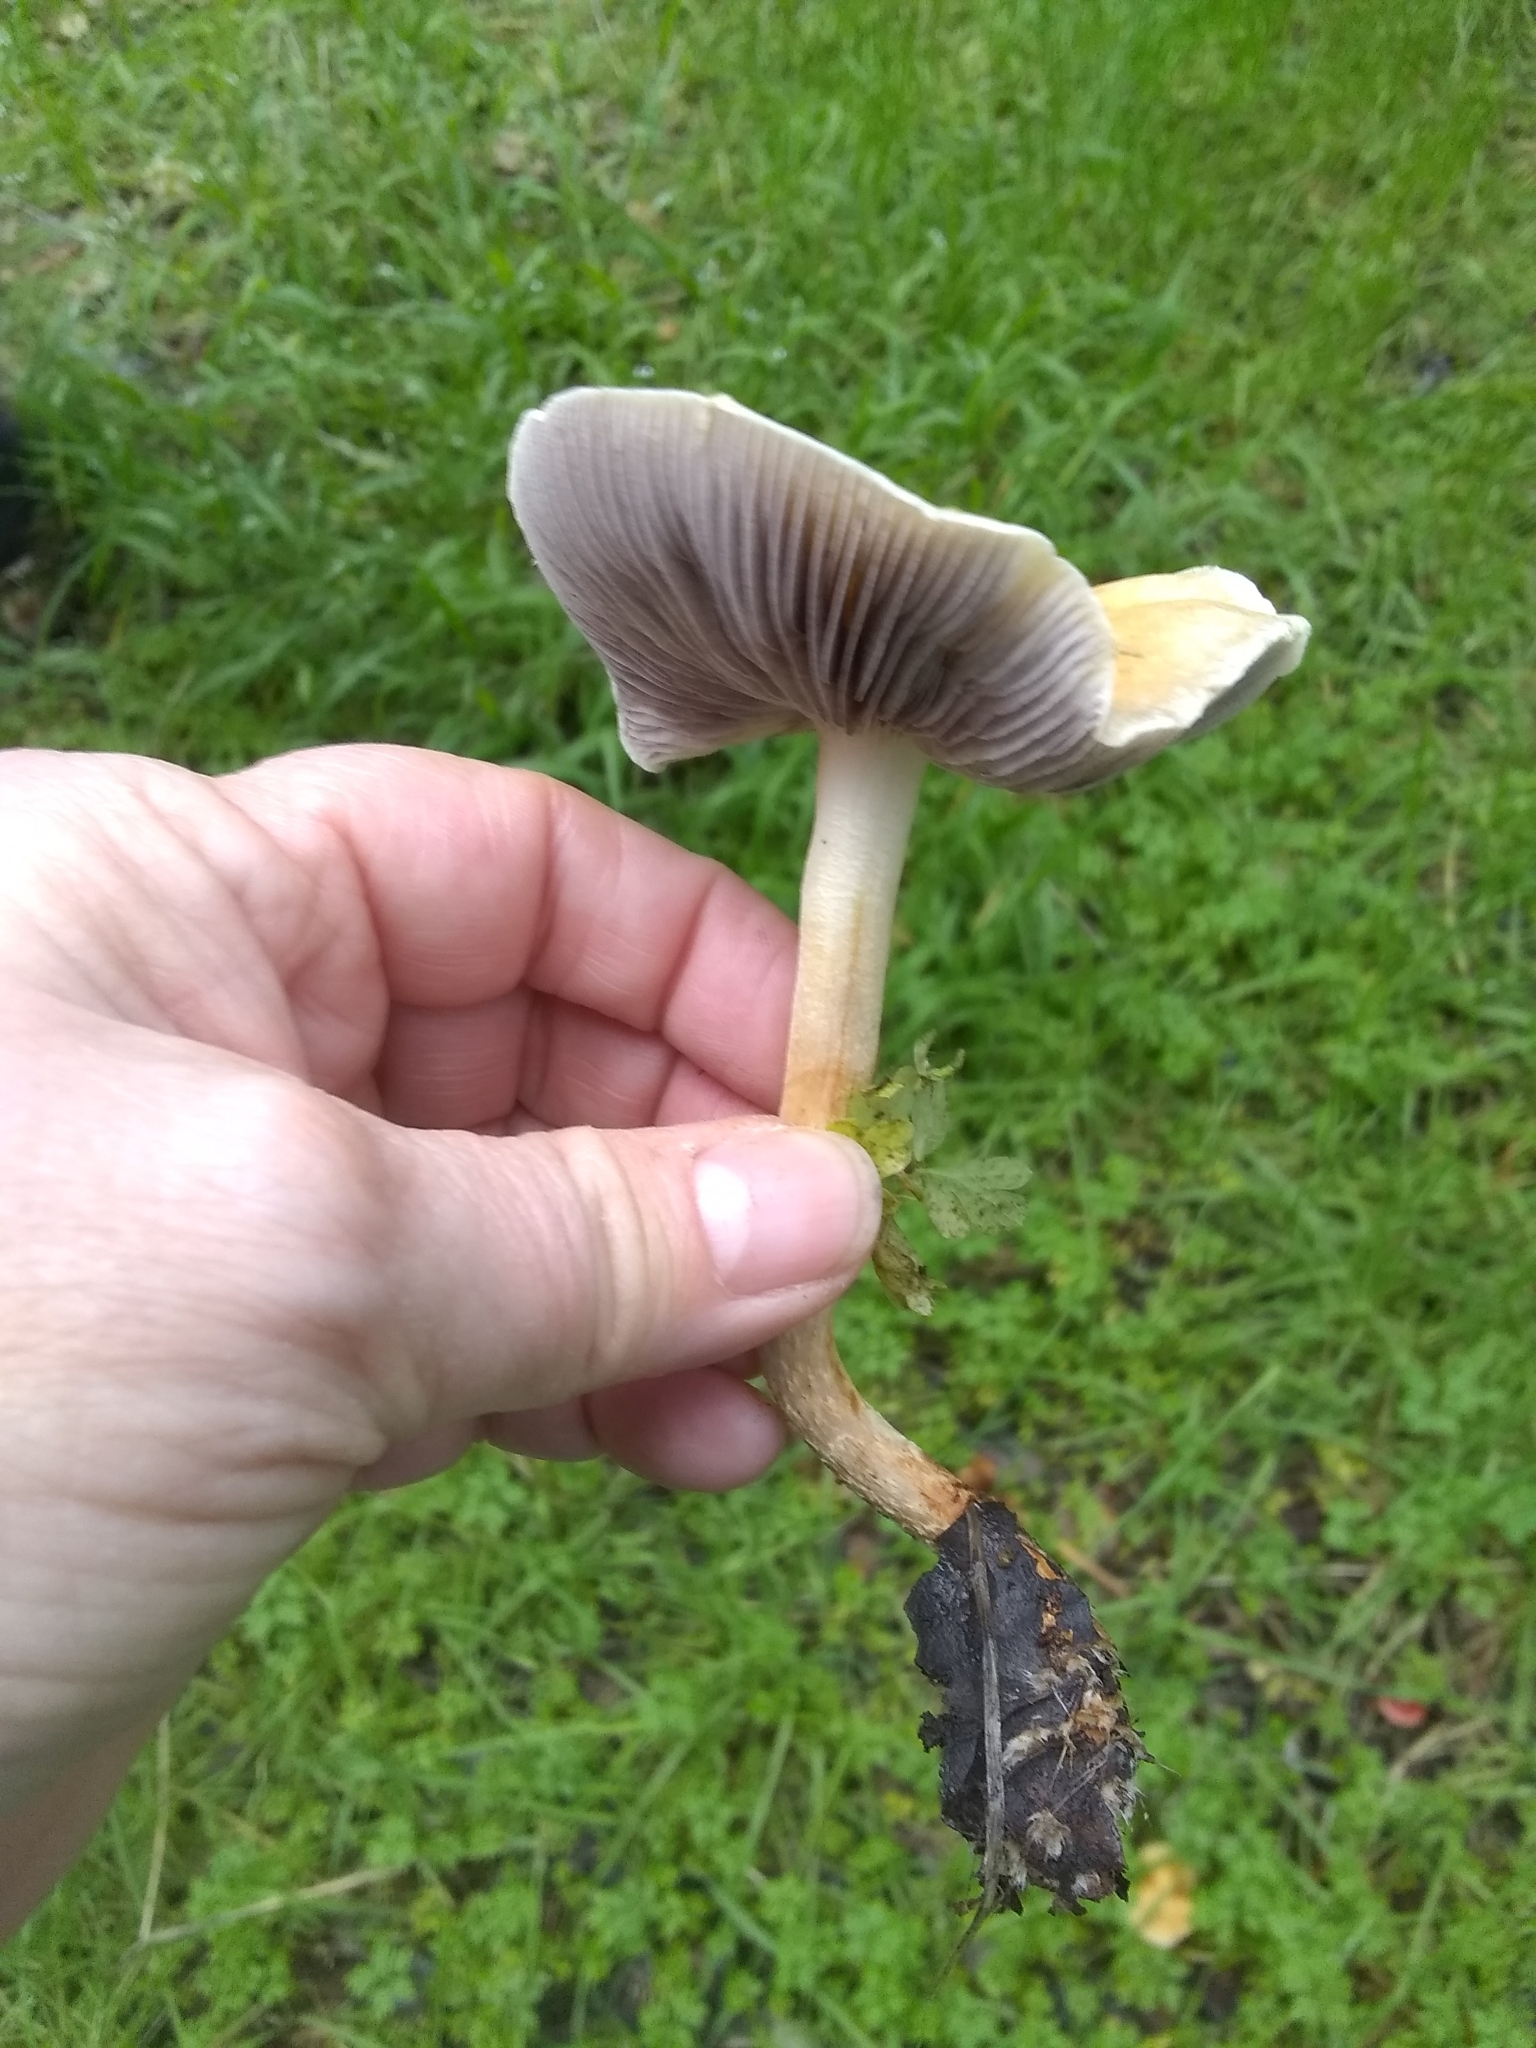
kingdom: Fungi
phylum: Basidiomycota
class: Agaricomycetes
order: Agaricales
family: Strophariaceae
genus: Leratiomyces
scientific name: Leratiomyces percevalii
